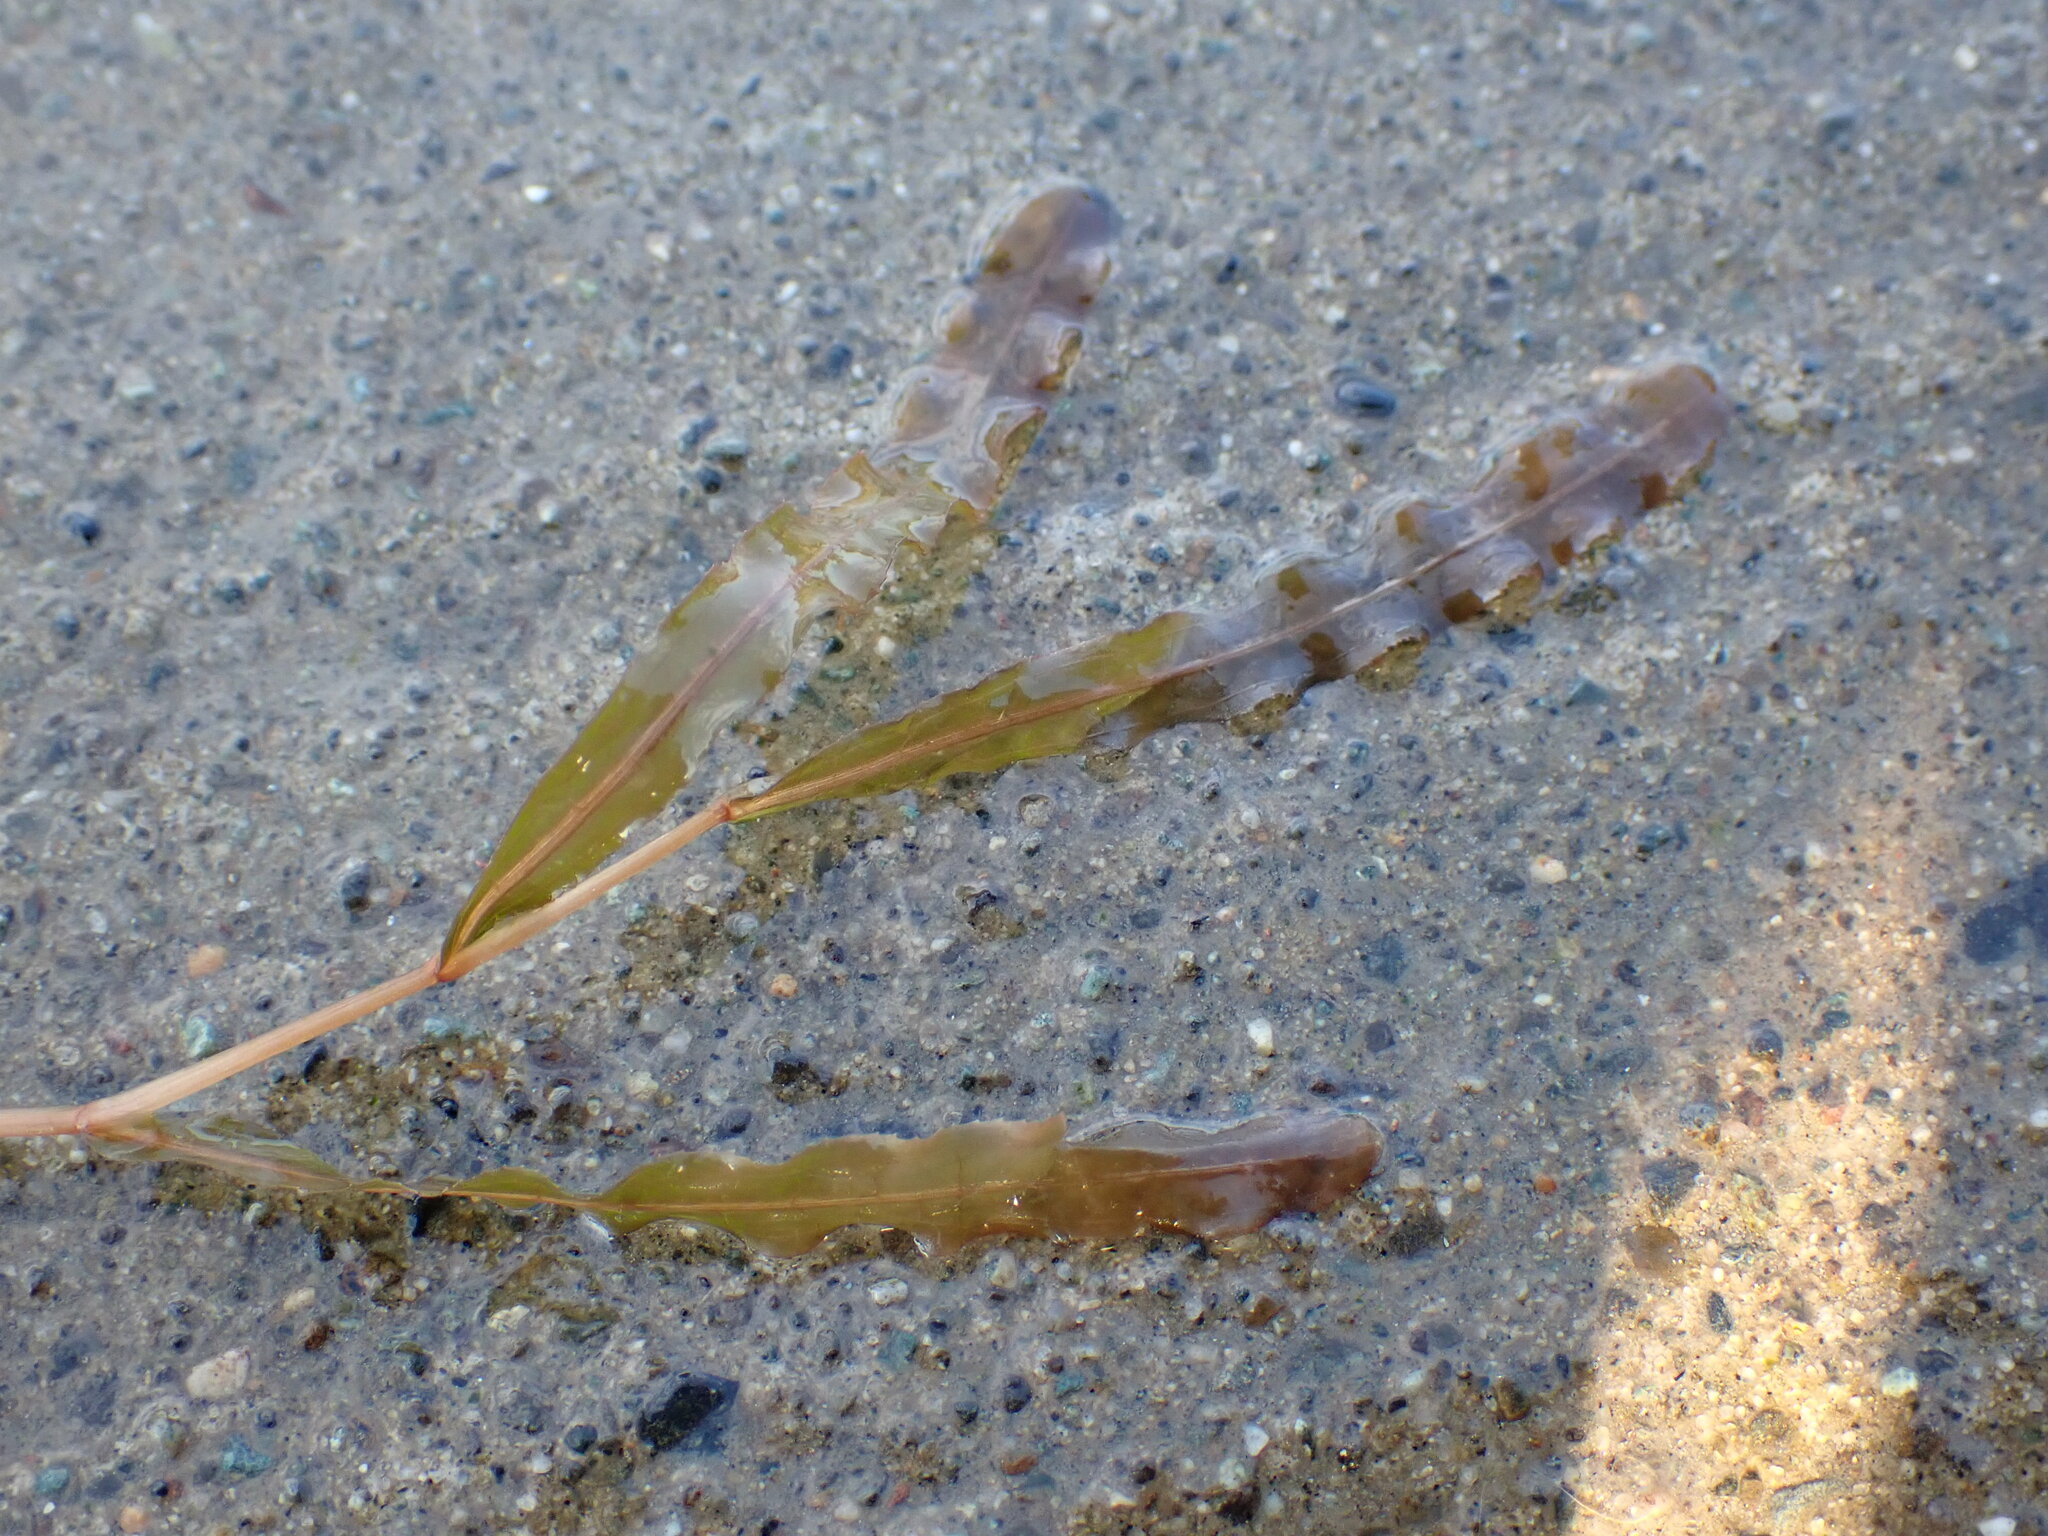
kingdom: Plantae
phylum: Tracheophyta
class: Liliopsida
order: Alismatales
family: Potamogetonaceae
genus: Potamogeton
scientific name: Potamogeton crispus
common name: Curled pondweed
